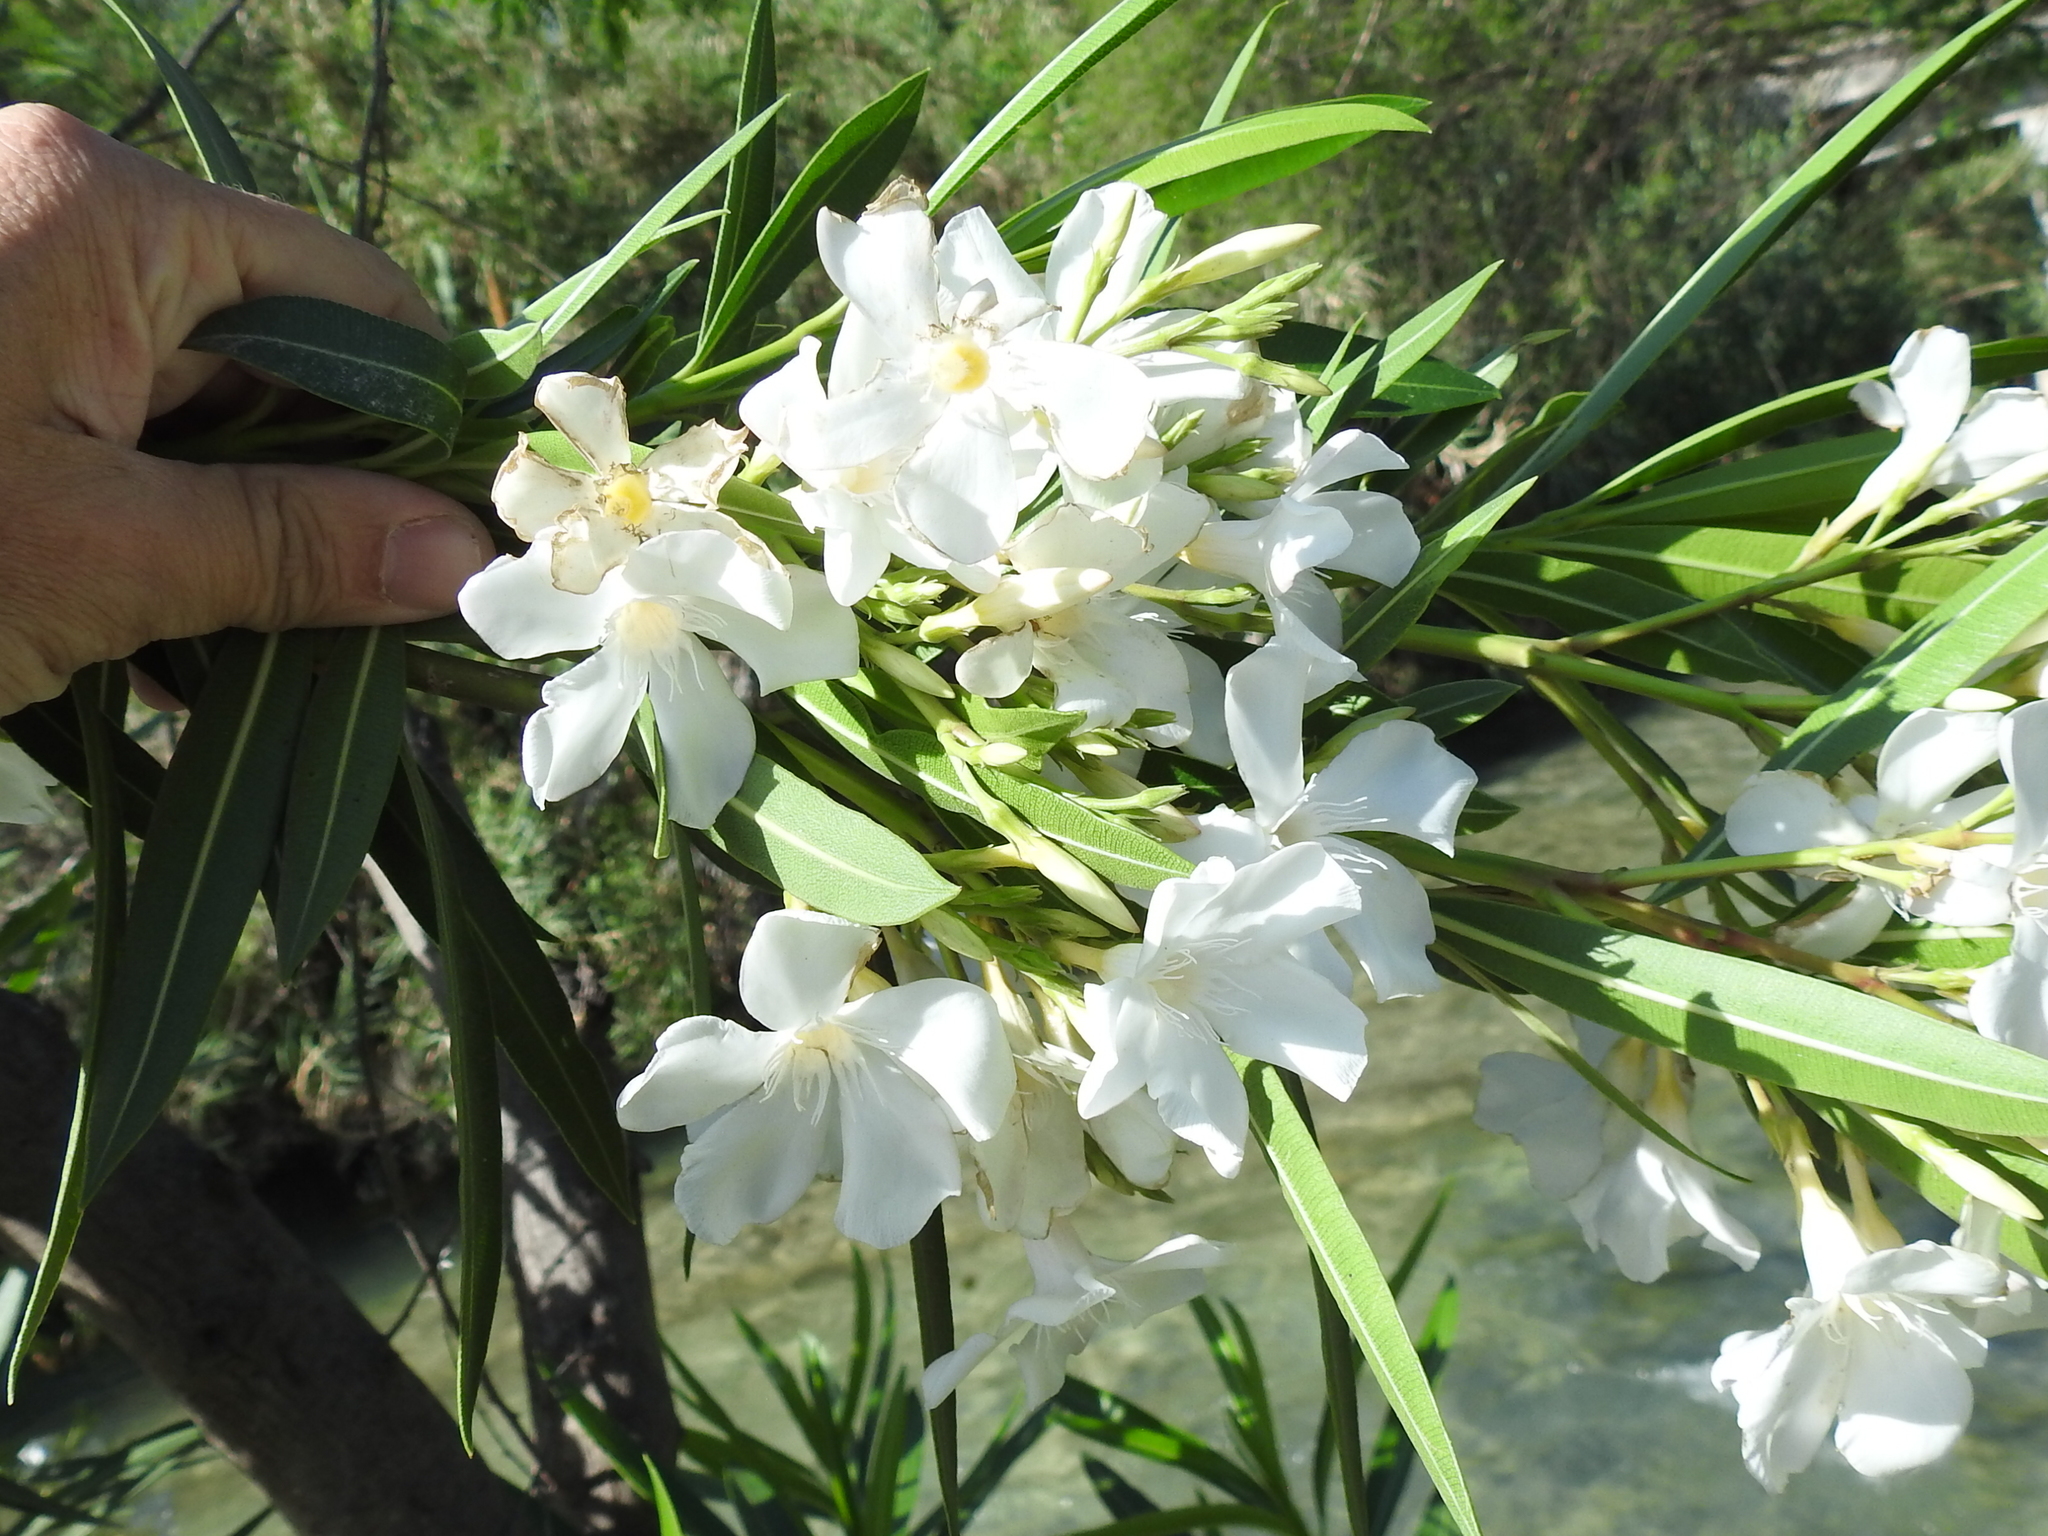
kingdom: Plantae
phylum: Tracheophyta
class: Magnoliopsida
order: Gentianales
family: Apocynaceae
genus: Nerium
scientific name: Nerium oleander
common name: Oleander
